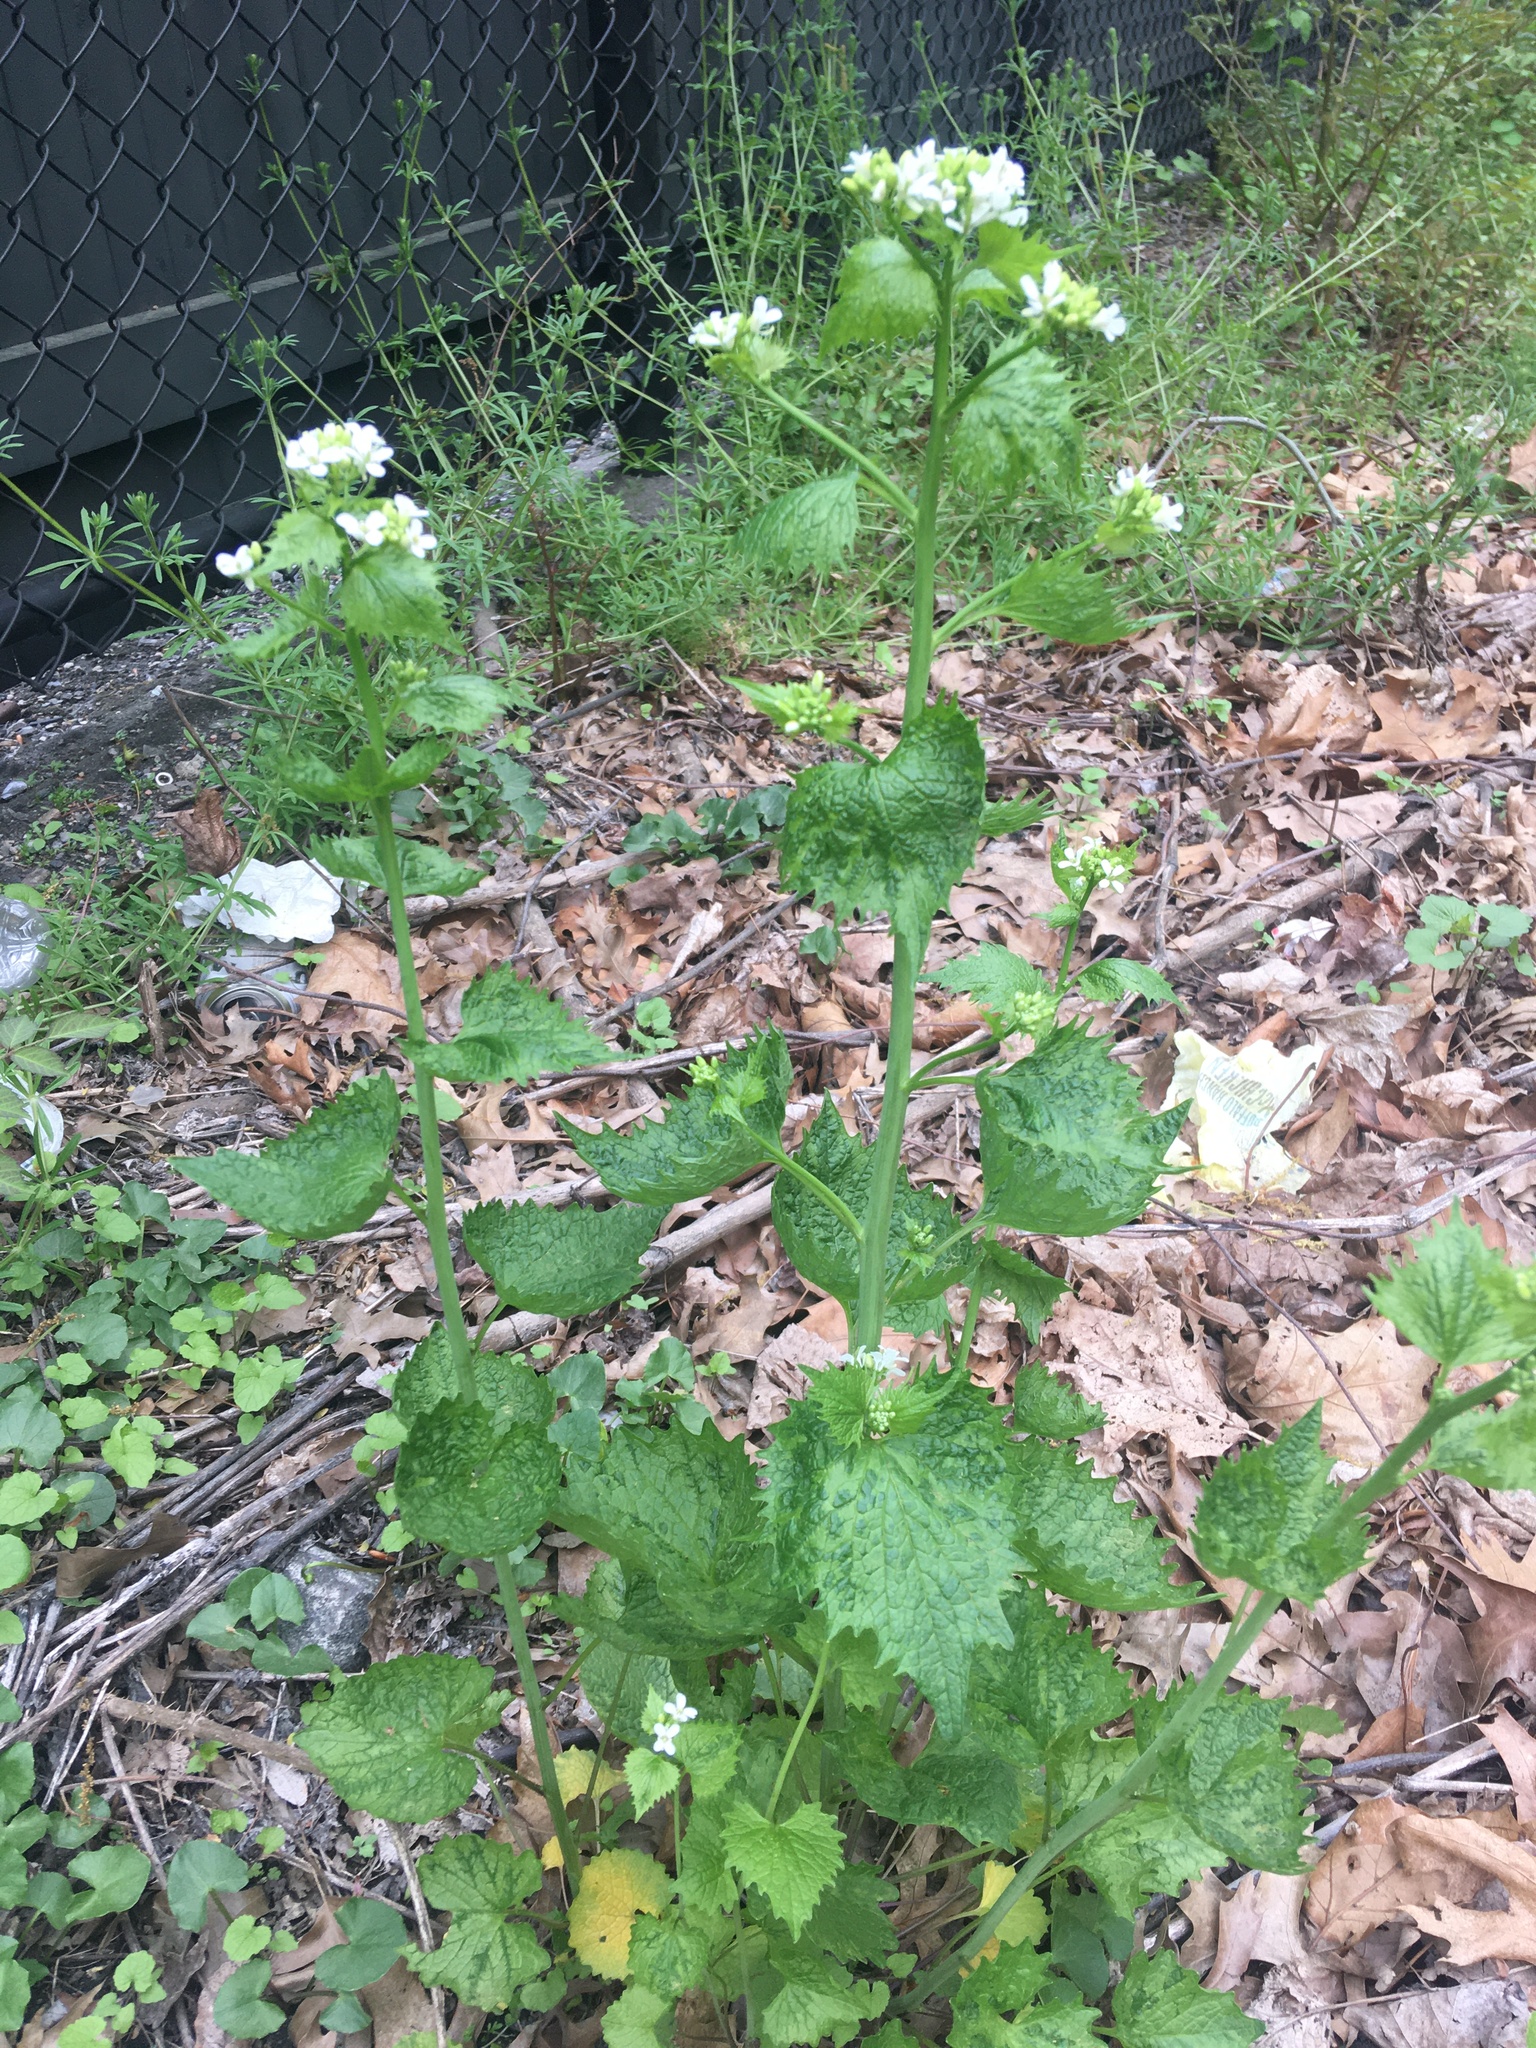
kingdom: Plantae
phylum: Tracheophyta
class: Magnoliopsida
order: Brassicales
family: Brassicaceae
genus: Alliaria
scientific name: Alliaria petiolata
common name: Garlic mustard
